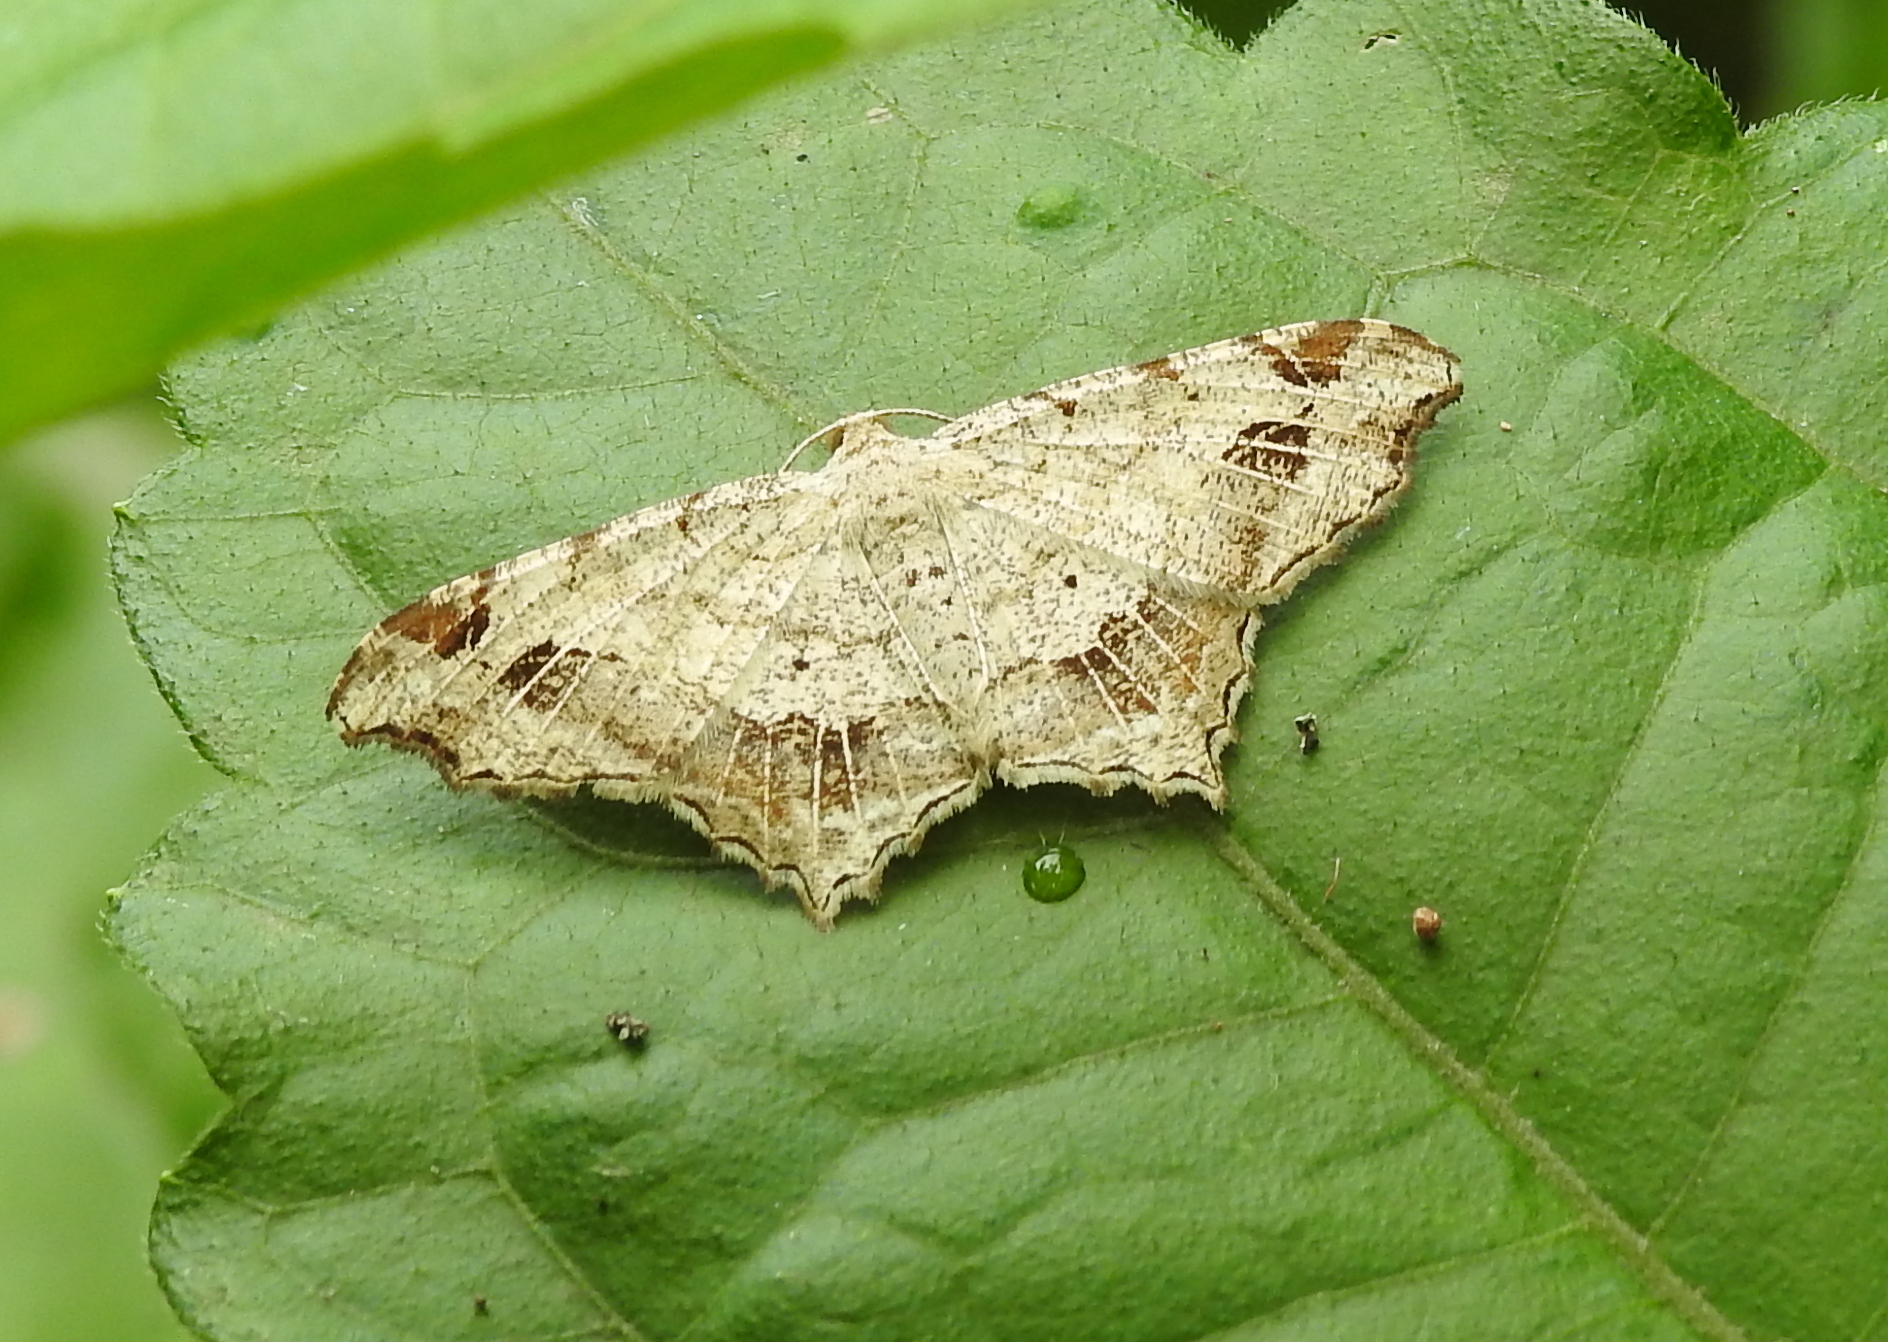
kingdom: Animalia
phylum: Arthropoda
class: Insecta
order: Lepidoptera
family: Geometridae
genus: Chiasmia
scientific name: Chiasmia emersaria
